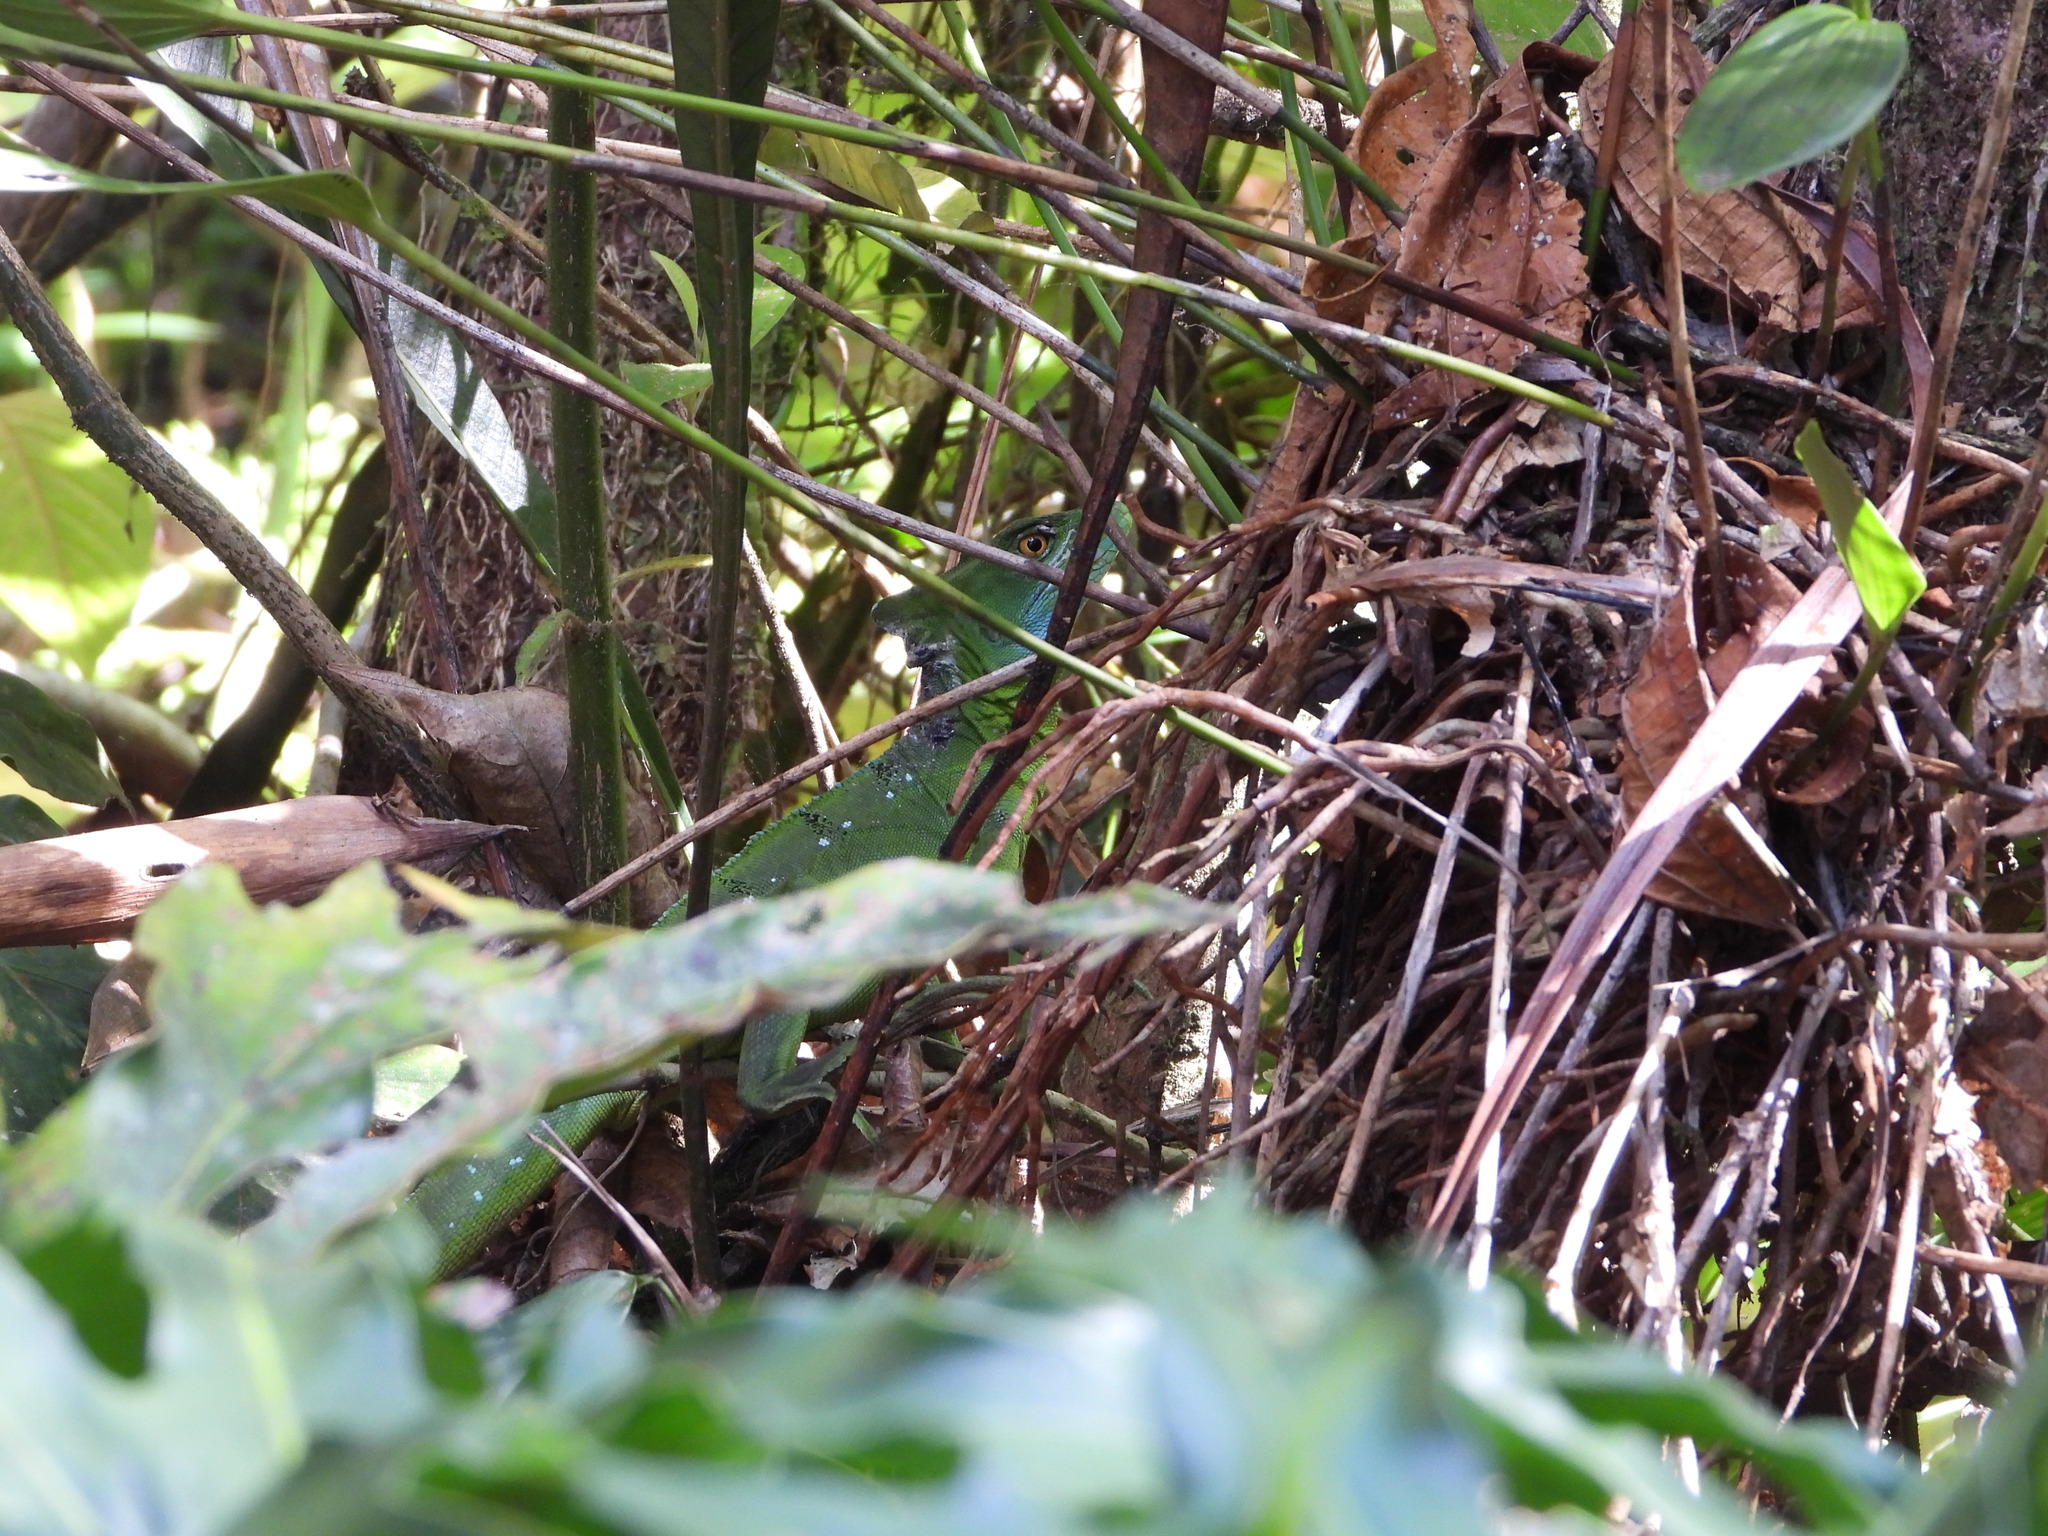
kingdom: Animalia
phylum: Chordata
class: Squamata
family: Corytophanidae
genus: Basiliscus
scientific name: Basiliscus plumifrons
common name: Green basilisk
